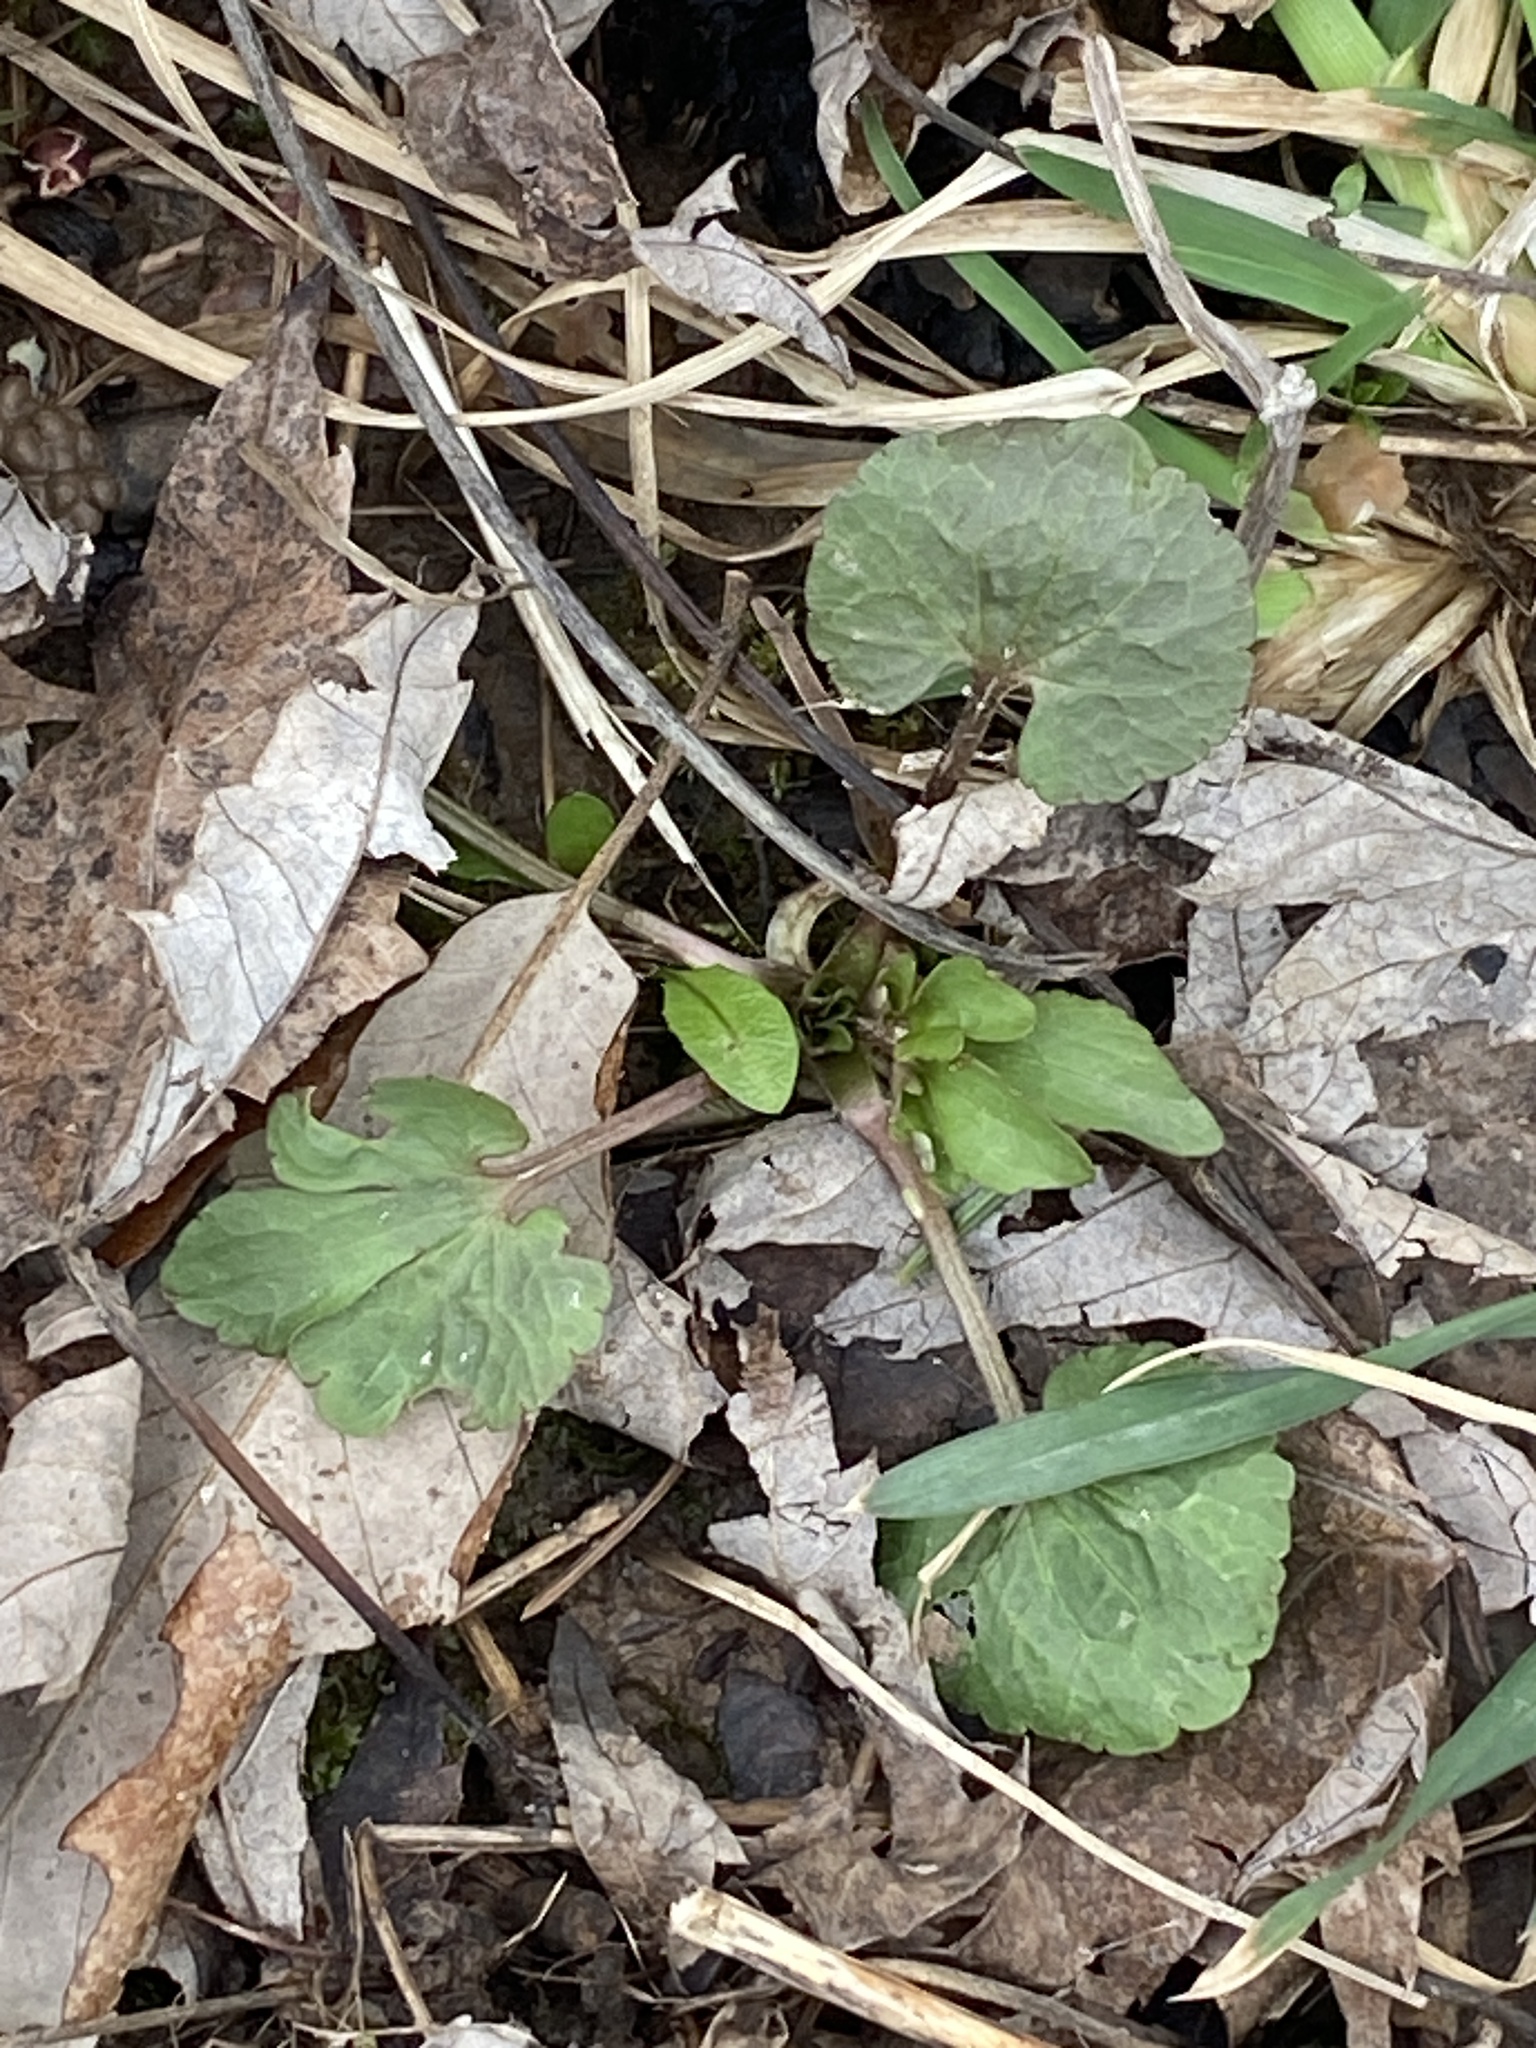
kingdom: Plantae
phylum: Tracheophyta
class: Magnoliopsida
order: Ranunculales
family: Ranunculaceae
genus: Ranunculus
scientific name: Ranunculus abortivus
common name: Early wood buttercup
